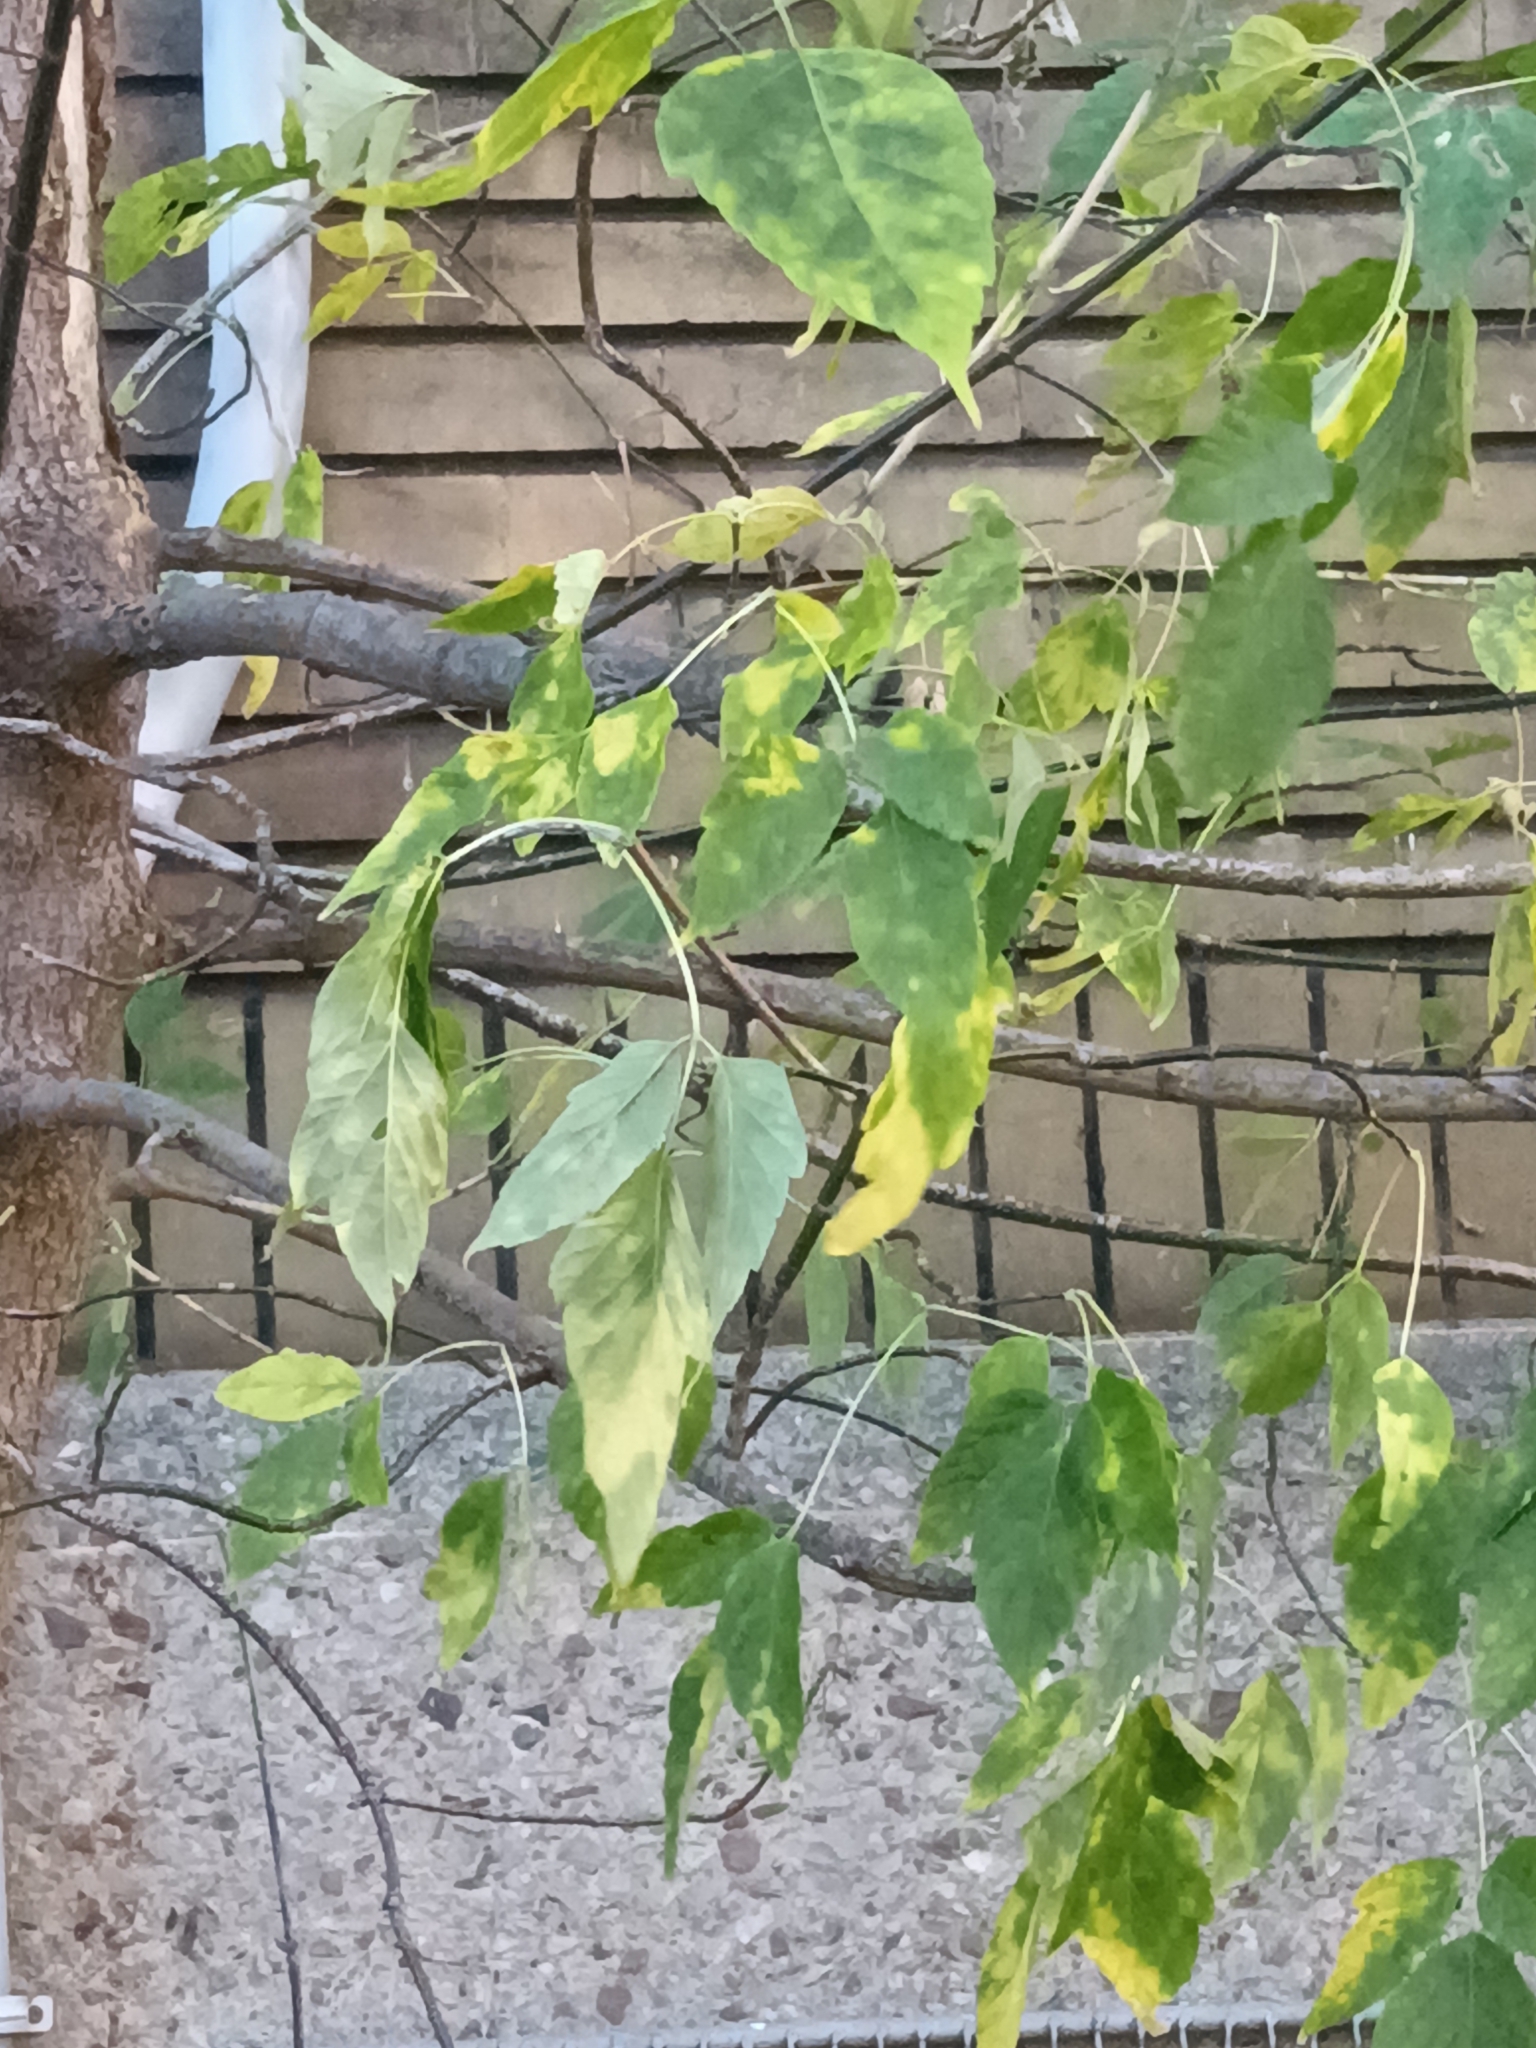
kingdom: Plantae
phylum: Tracheophyta
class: Magnoliopsida
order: Sapindales
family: Sapindaceae
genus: Acer
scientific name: Acer negundo
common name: Ashleaf maple
